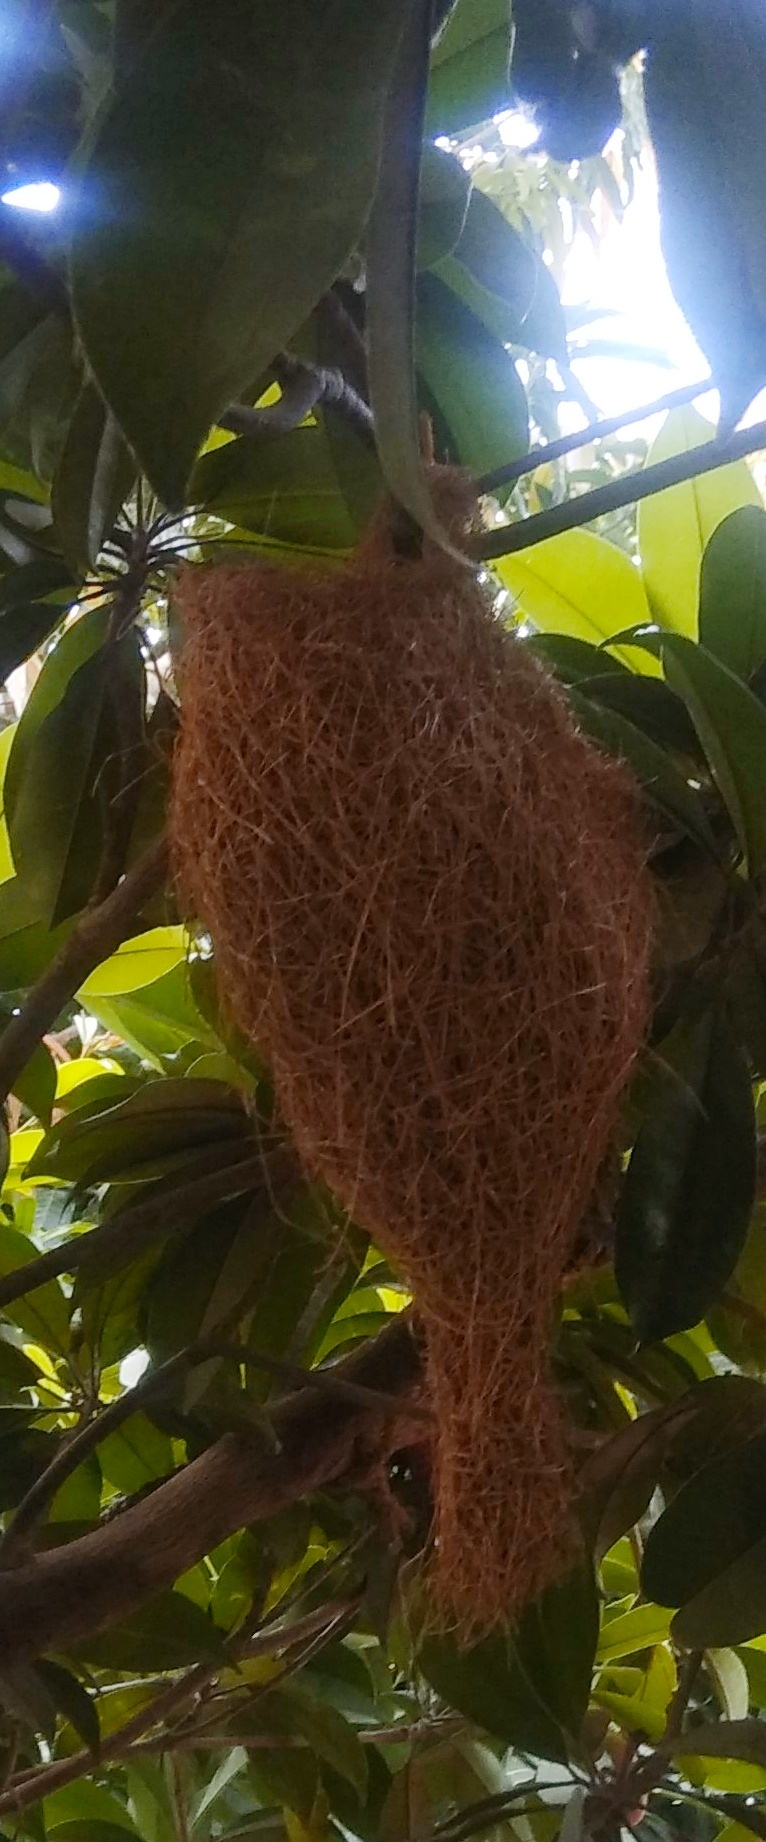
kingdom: Animalia
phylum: Chordata
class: Aves
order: Passeriformes
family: Ploceidae
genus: Ploceus
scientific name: Ploceus philippinus
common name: Baya weaver
